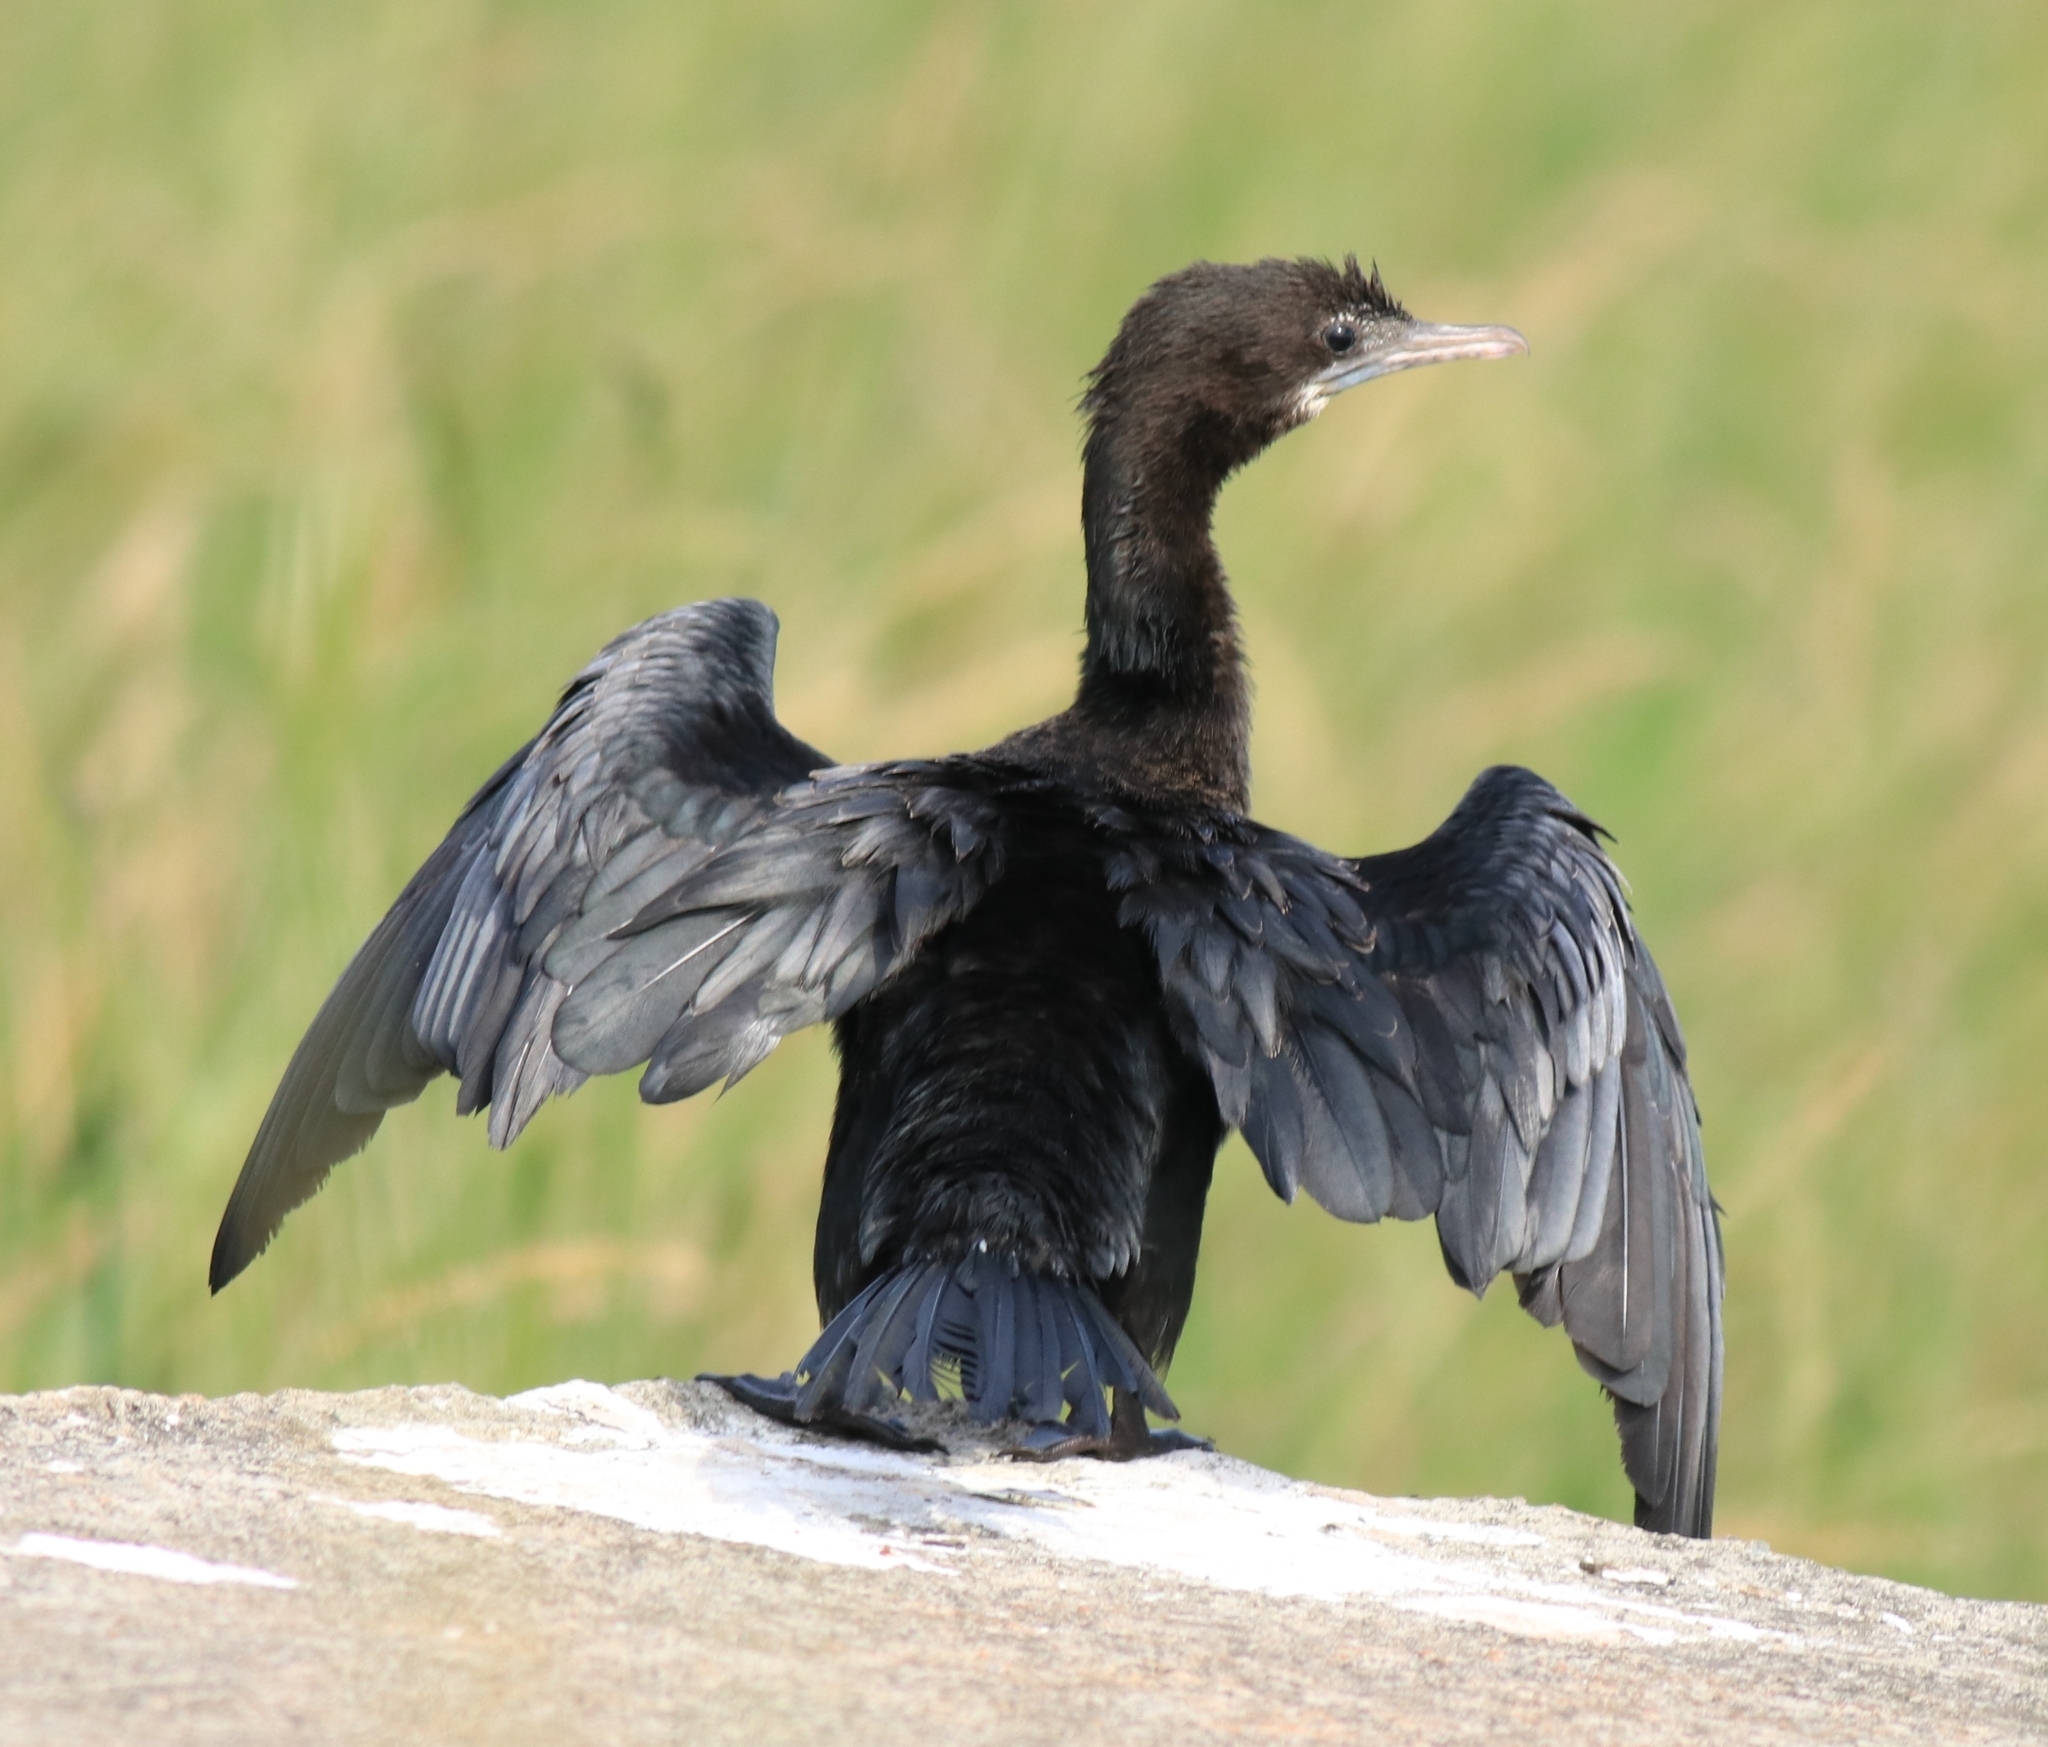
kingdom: Animalia
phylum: Chordata
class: Aves
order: Suliformes
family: Phalacrocoracidae
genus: Microcarbo
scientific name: Microcarbo niger
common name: Little cormorant
